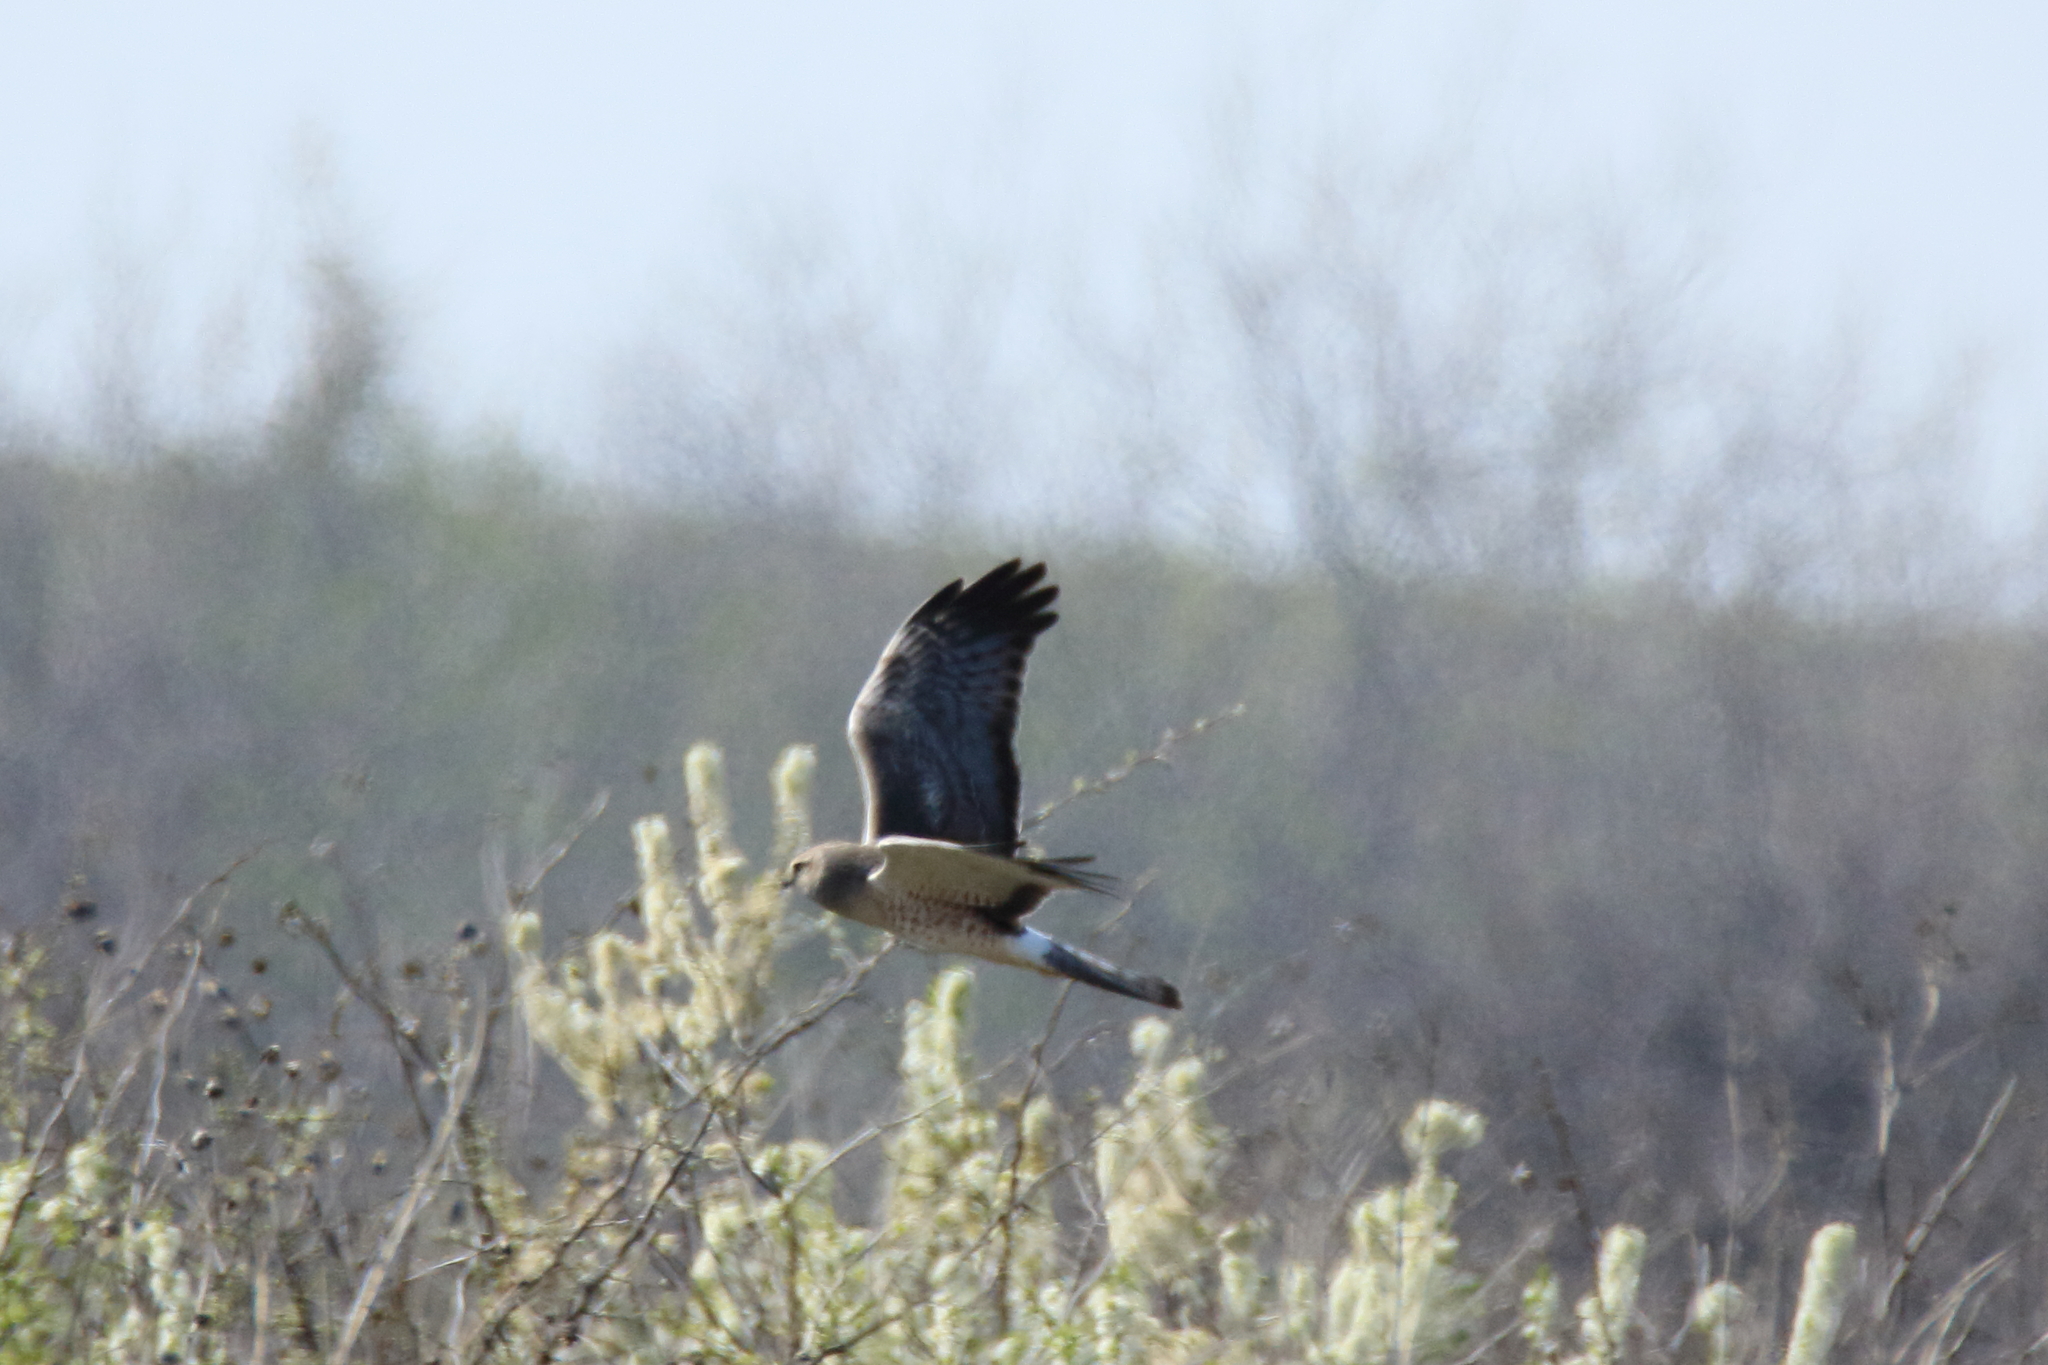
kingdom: Animalia
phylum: Chordata
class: Aves
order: Accipitriformes
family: Accipitridae
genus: Circus
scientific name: Circus cyaneus
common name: Hen harrier
